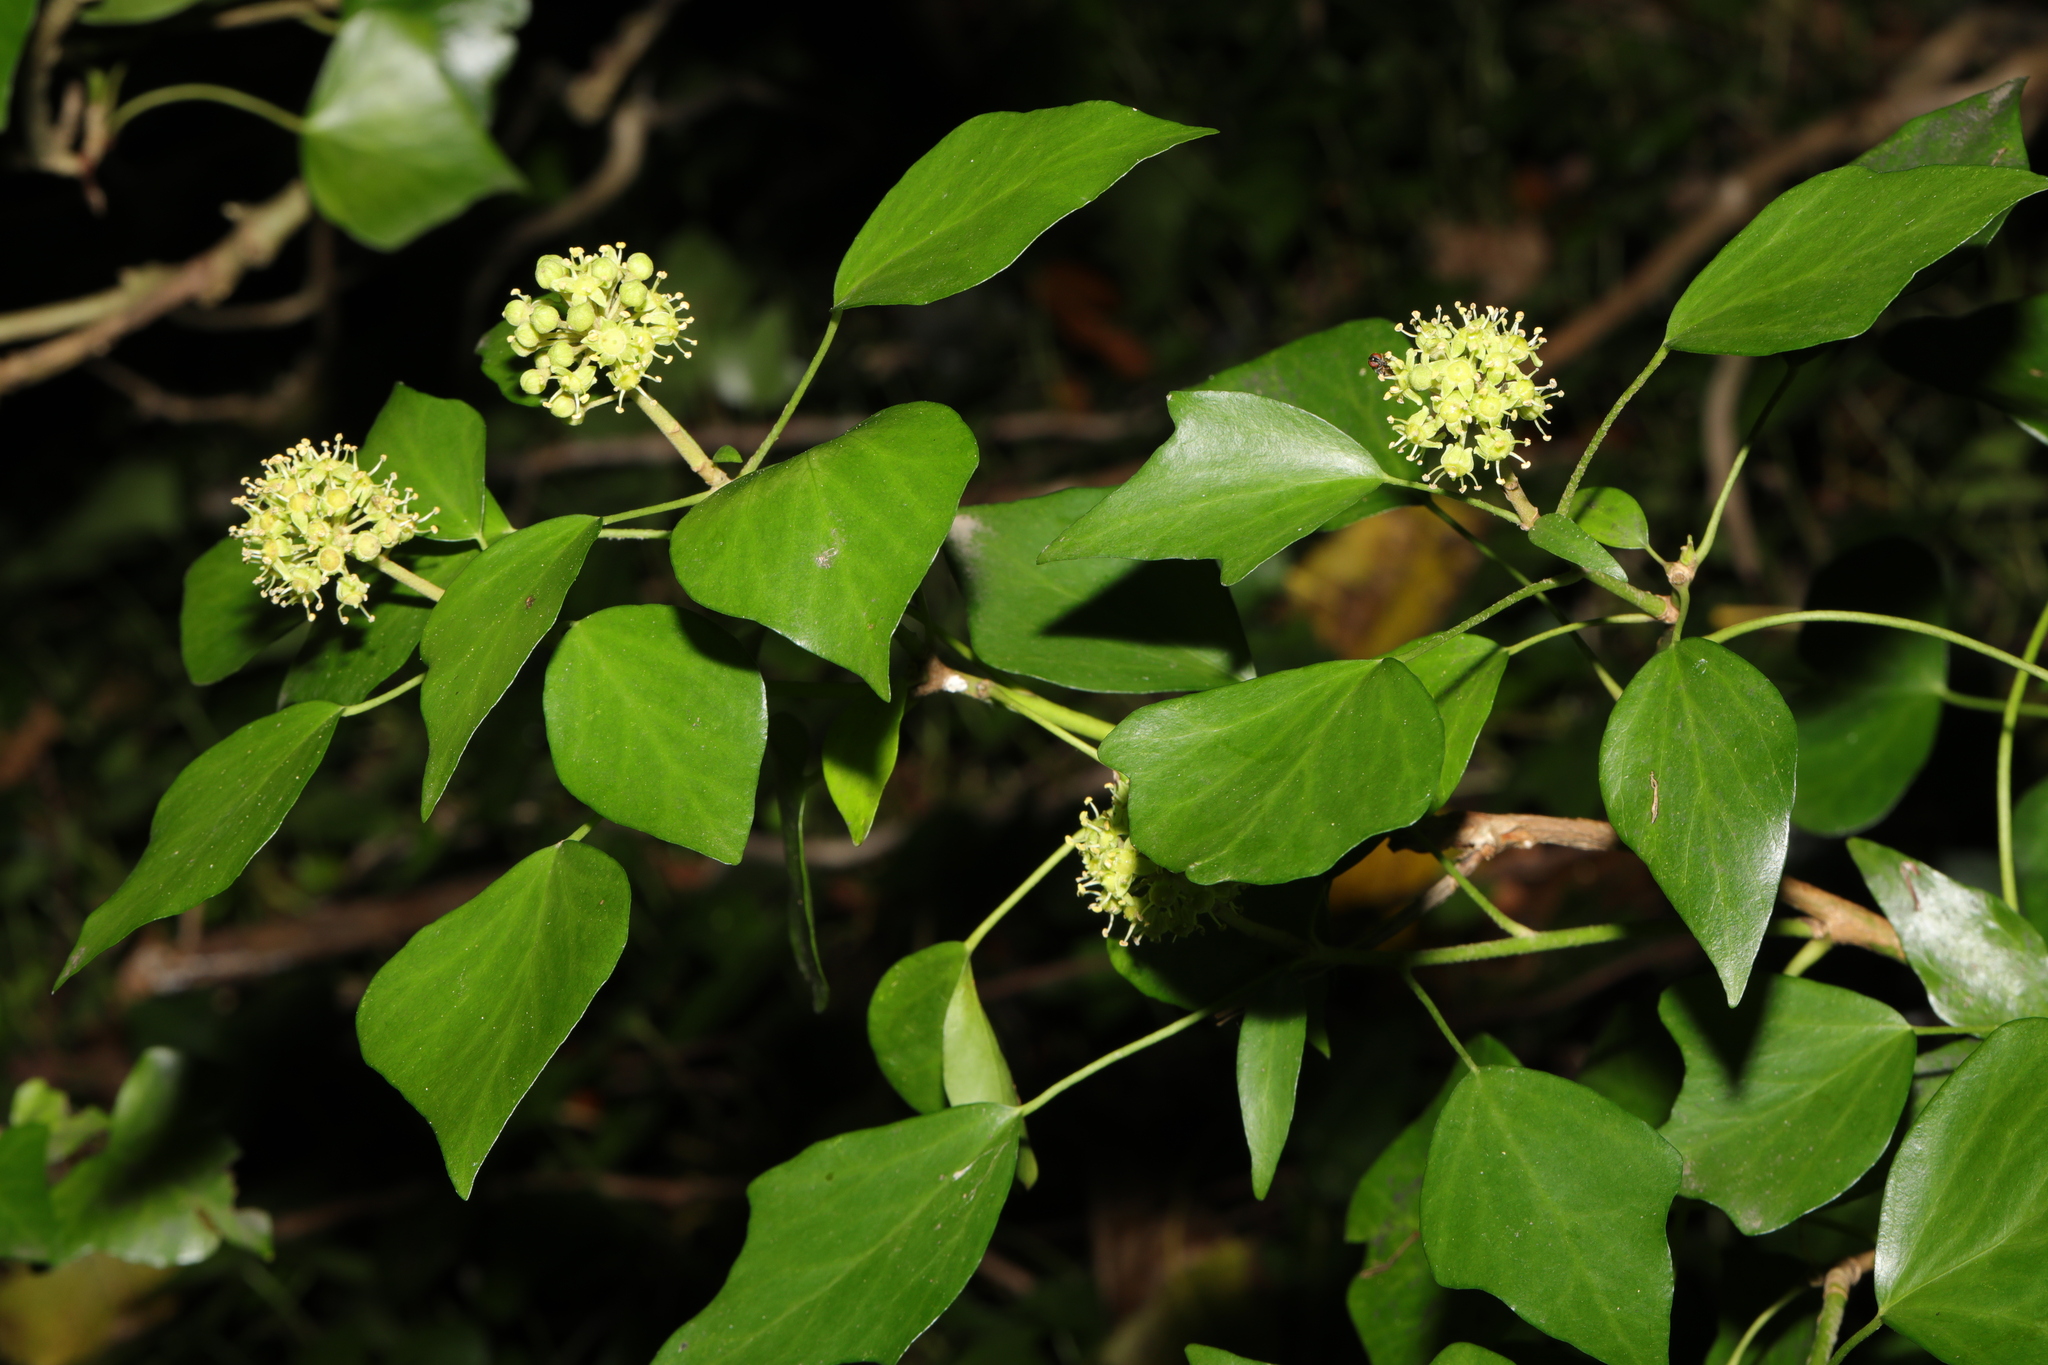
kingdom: Plantae
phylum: Tracheophyta
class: Magnoliopsida
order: Apiales
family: Araliaceae
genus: Hedera
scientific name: Hedera helix
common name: Ivy
